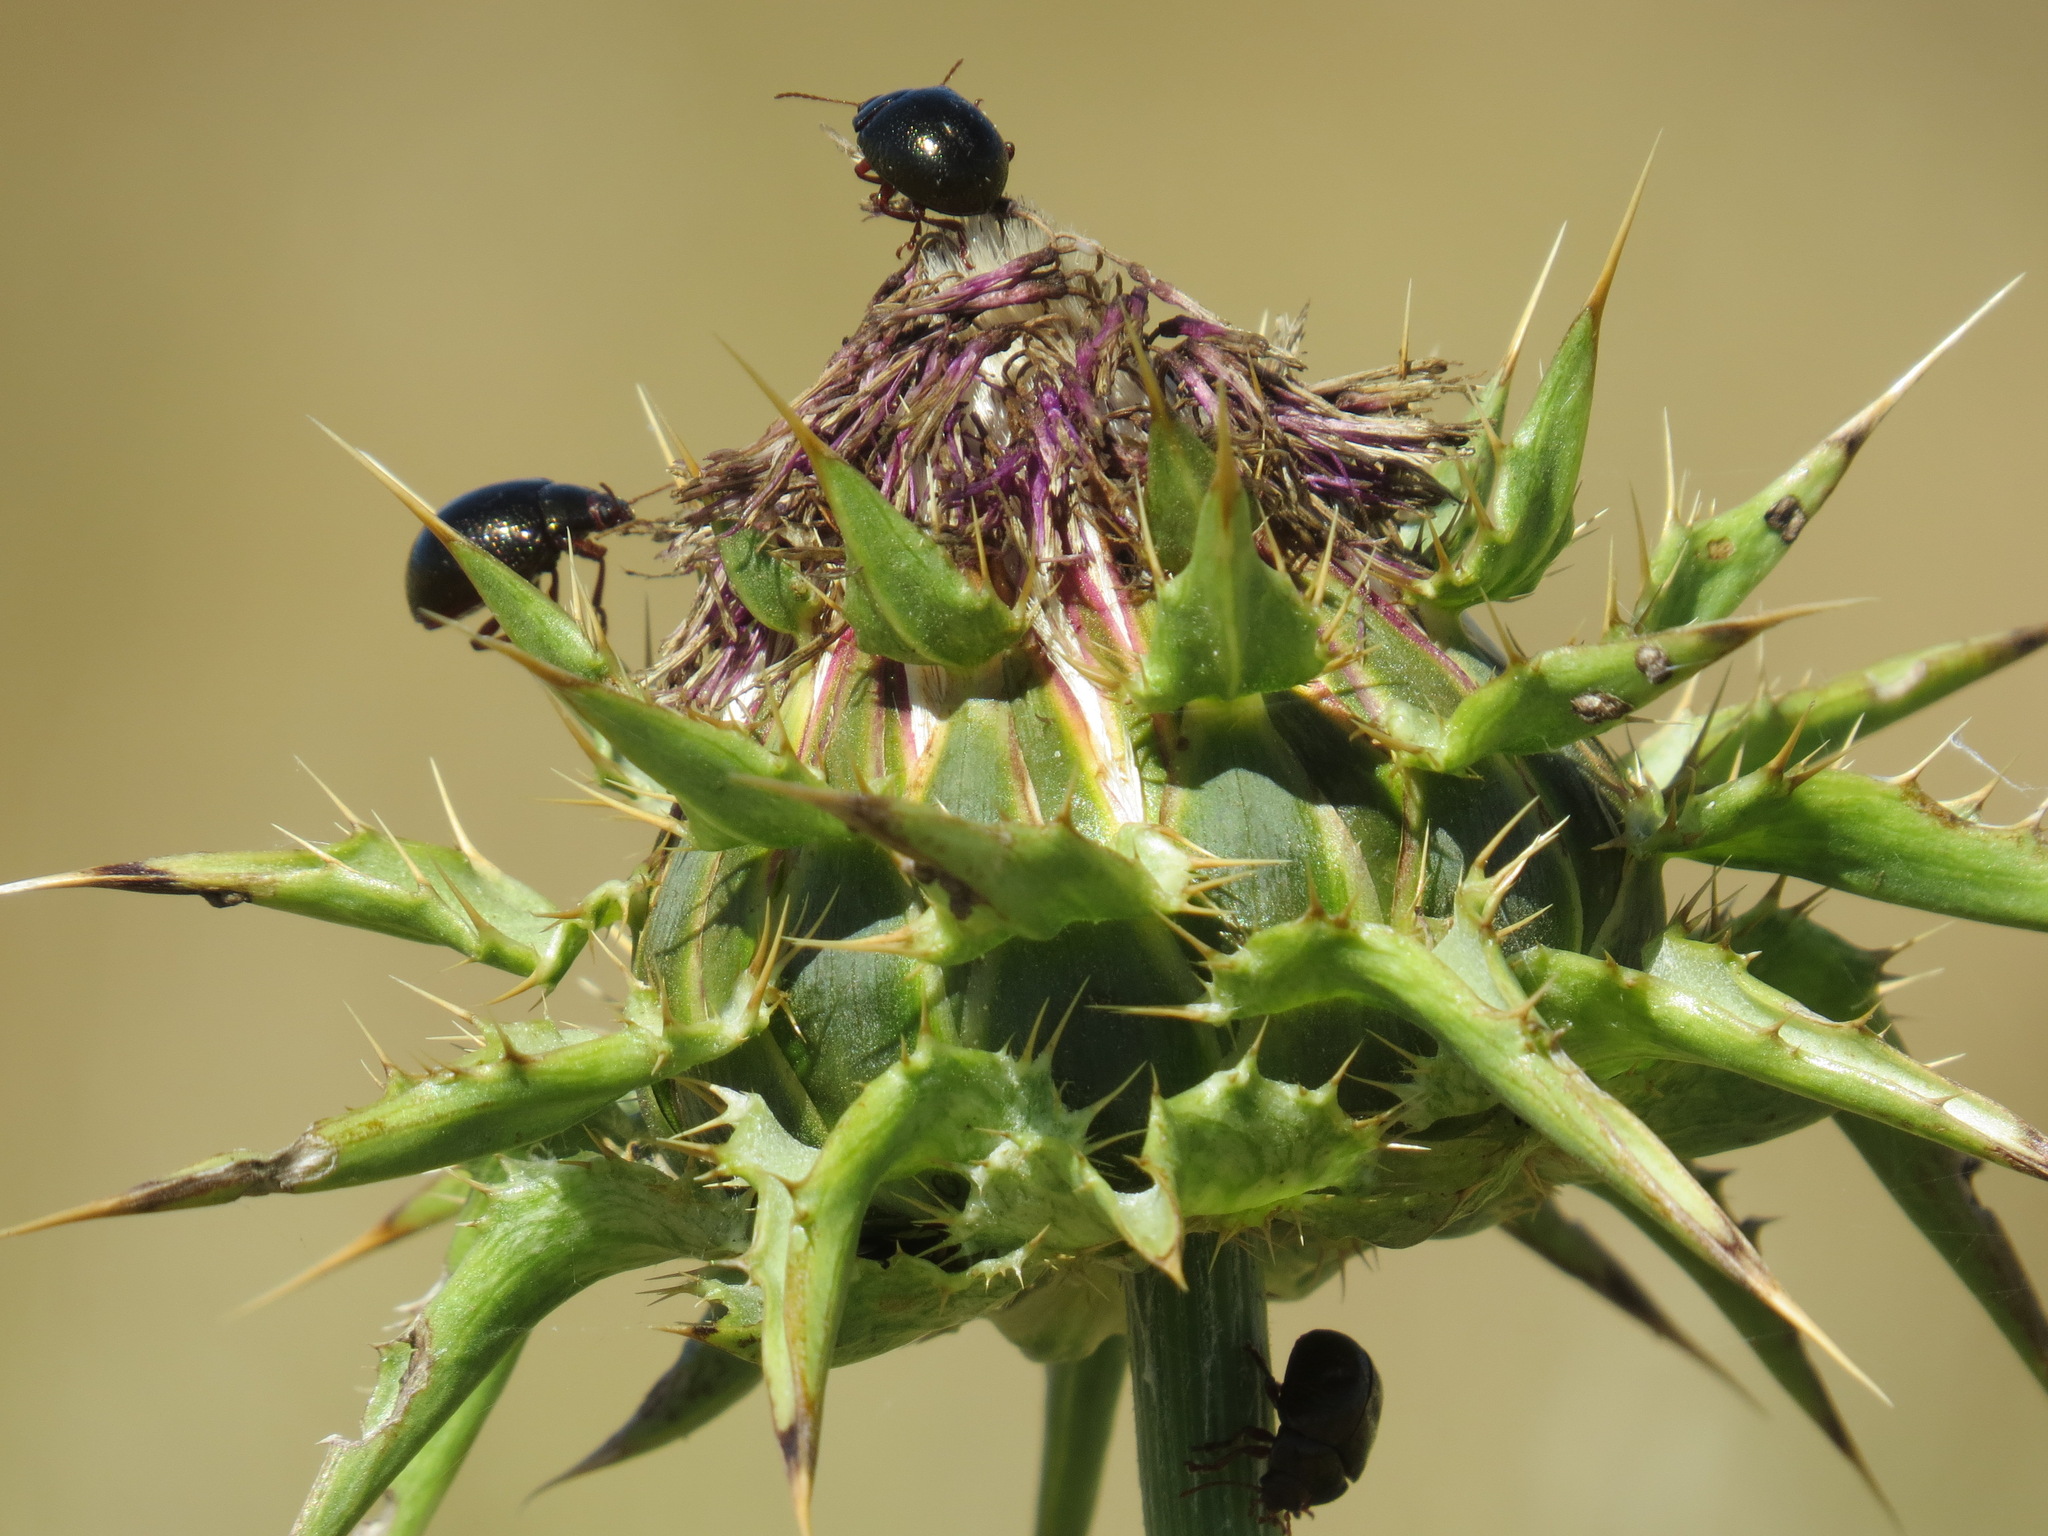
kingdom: Animalia
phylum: Arthropoda
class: Insecta
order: Coleoptera
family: Chrysomelidae
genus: Chrysolina
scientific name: Chrysolina bankii
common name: Leaf beetle
